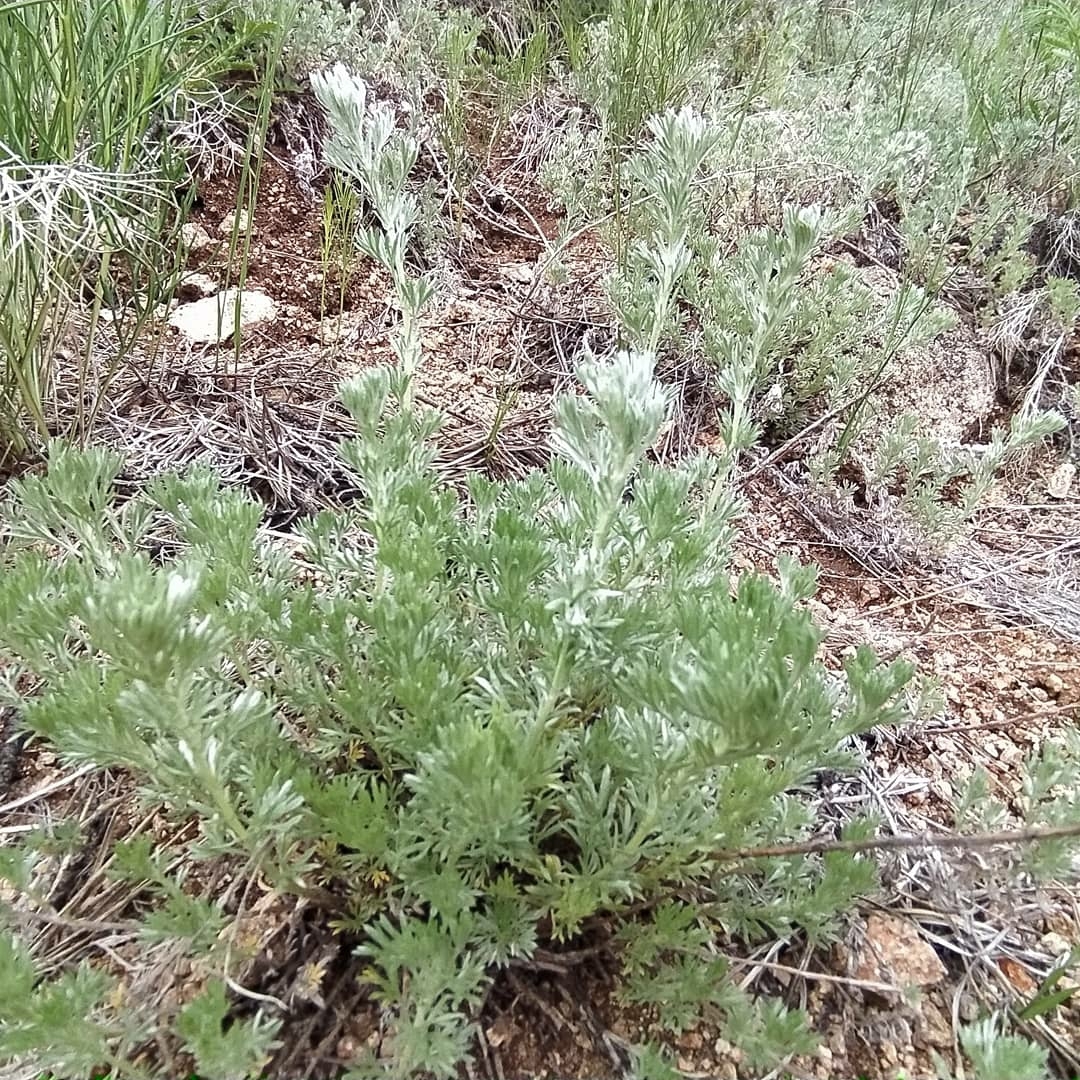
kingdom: Plantae
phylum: Tracheophyta
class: Magnoliopsida
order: Asterales
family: Asteraceae
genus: Artemisia
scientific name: Artemisia frigida
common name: Prairie sagewort
